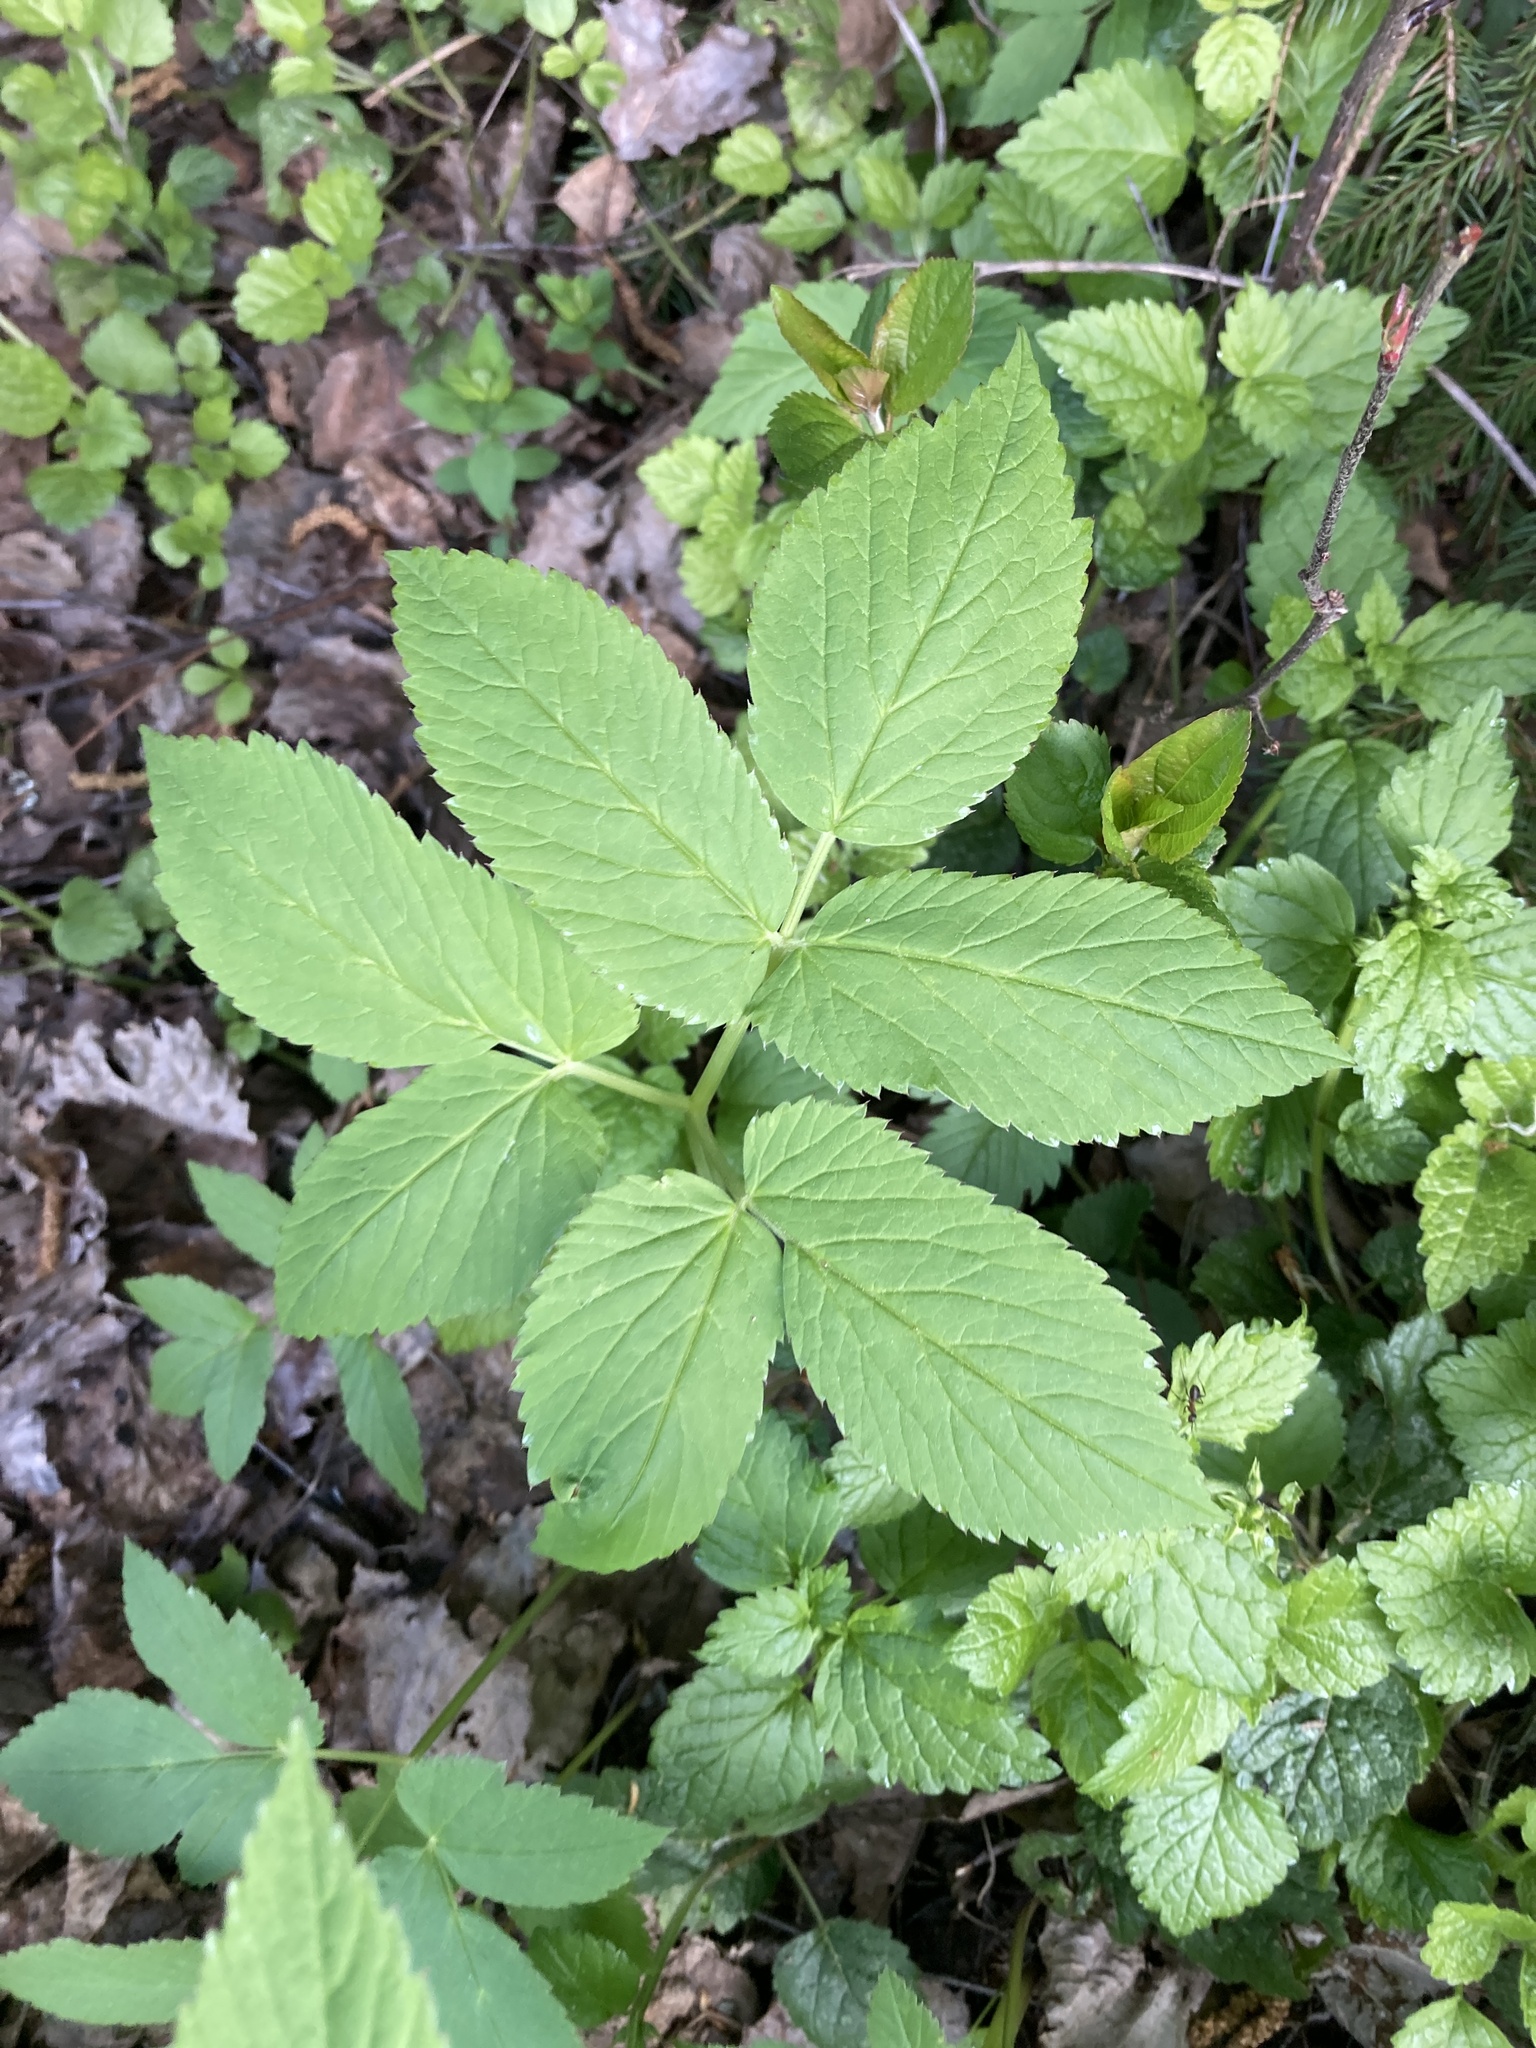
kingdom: Plantae
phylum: Tracheophyta
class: Magnoliopsida
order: Apiales
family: Apiaceae
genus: Aegopodium
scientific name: Aegopodium podagraria
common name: Ground-elder
